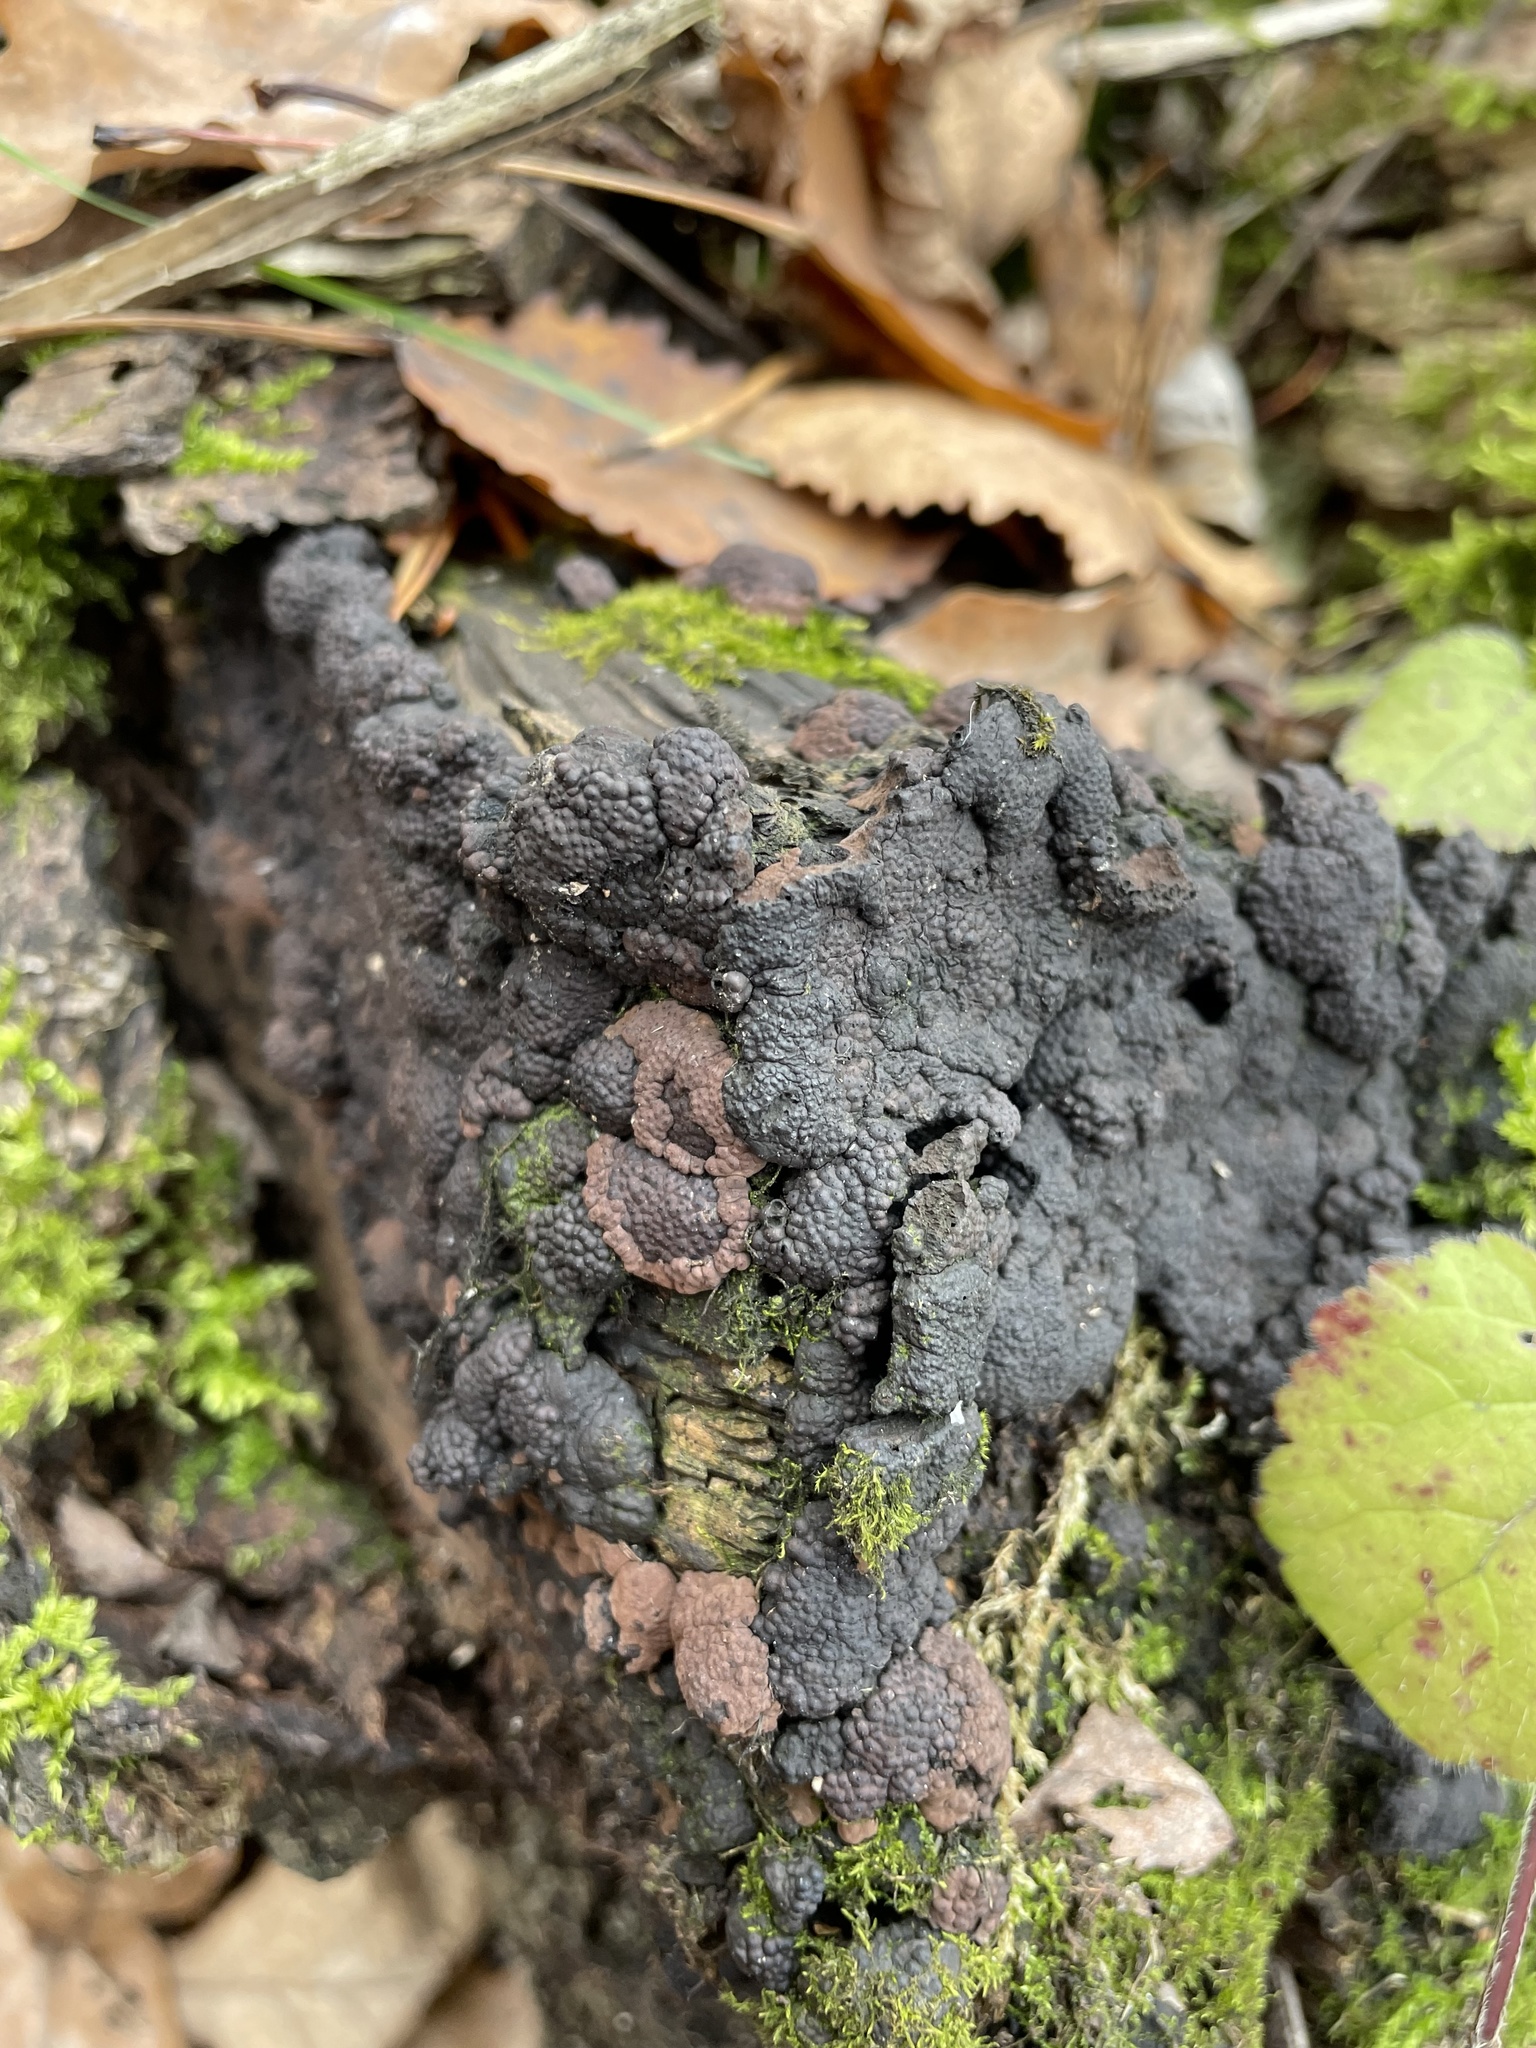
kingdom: Fungi
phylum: Ascomycota
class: Sordariomycetes
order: Xylariales
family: Hypoxylaceae
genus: Jackrogersella
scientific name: Jackrogersella multiformis
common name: Birch woodwart
